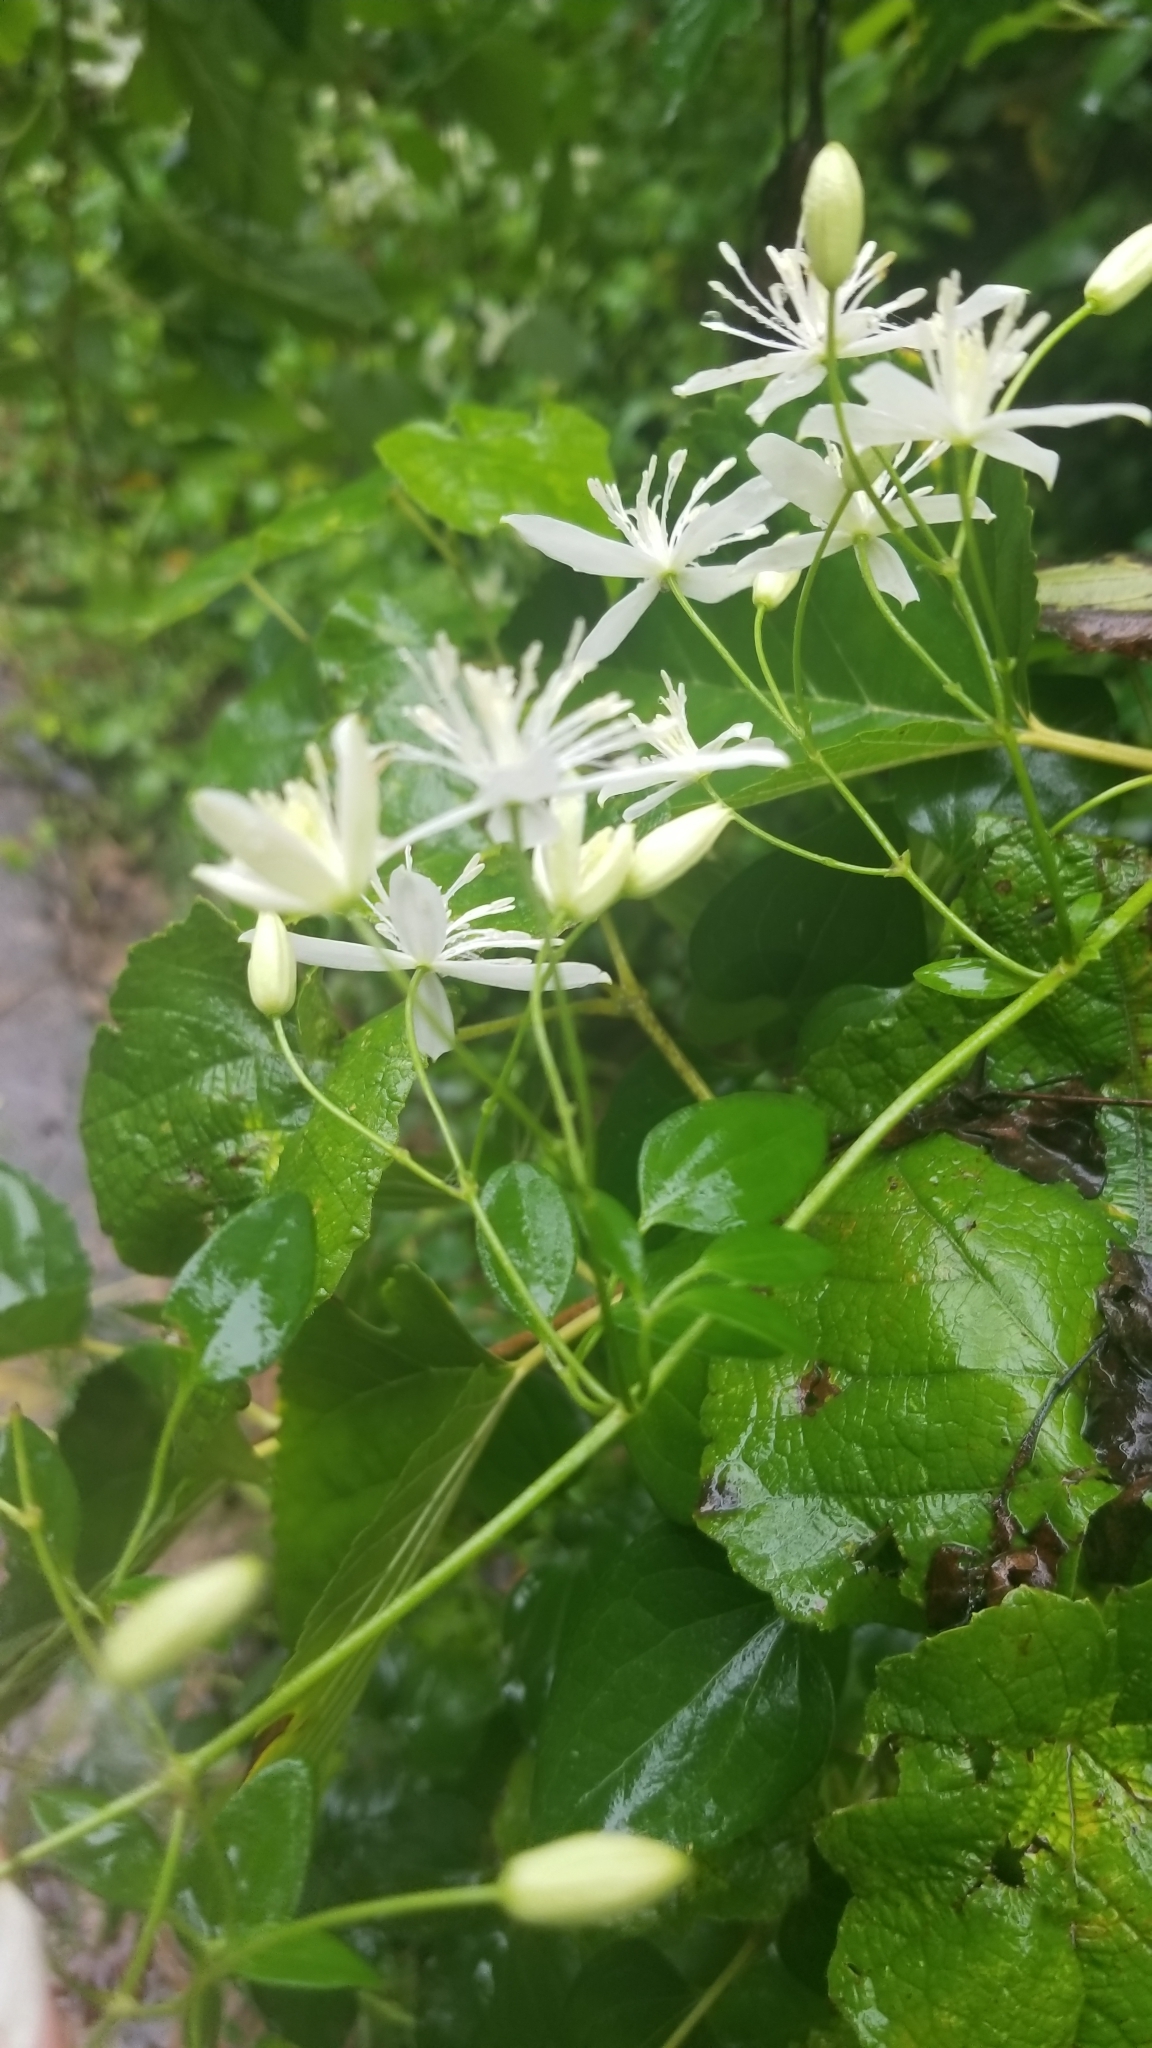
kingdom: Plantae
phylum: Tracheophyta
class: Magnoliopsida
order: Ranunculales
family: Ranunculaceae
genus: Clematis
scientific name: Clematis terniflora
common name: Sweet autumn clematis
